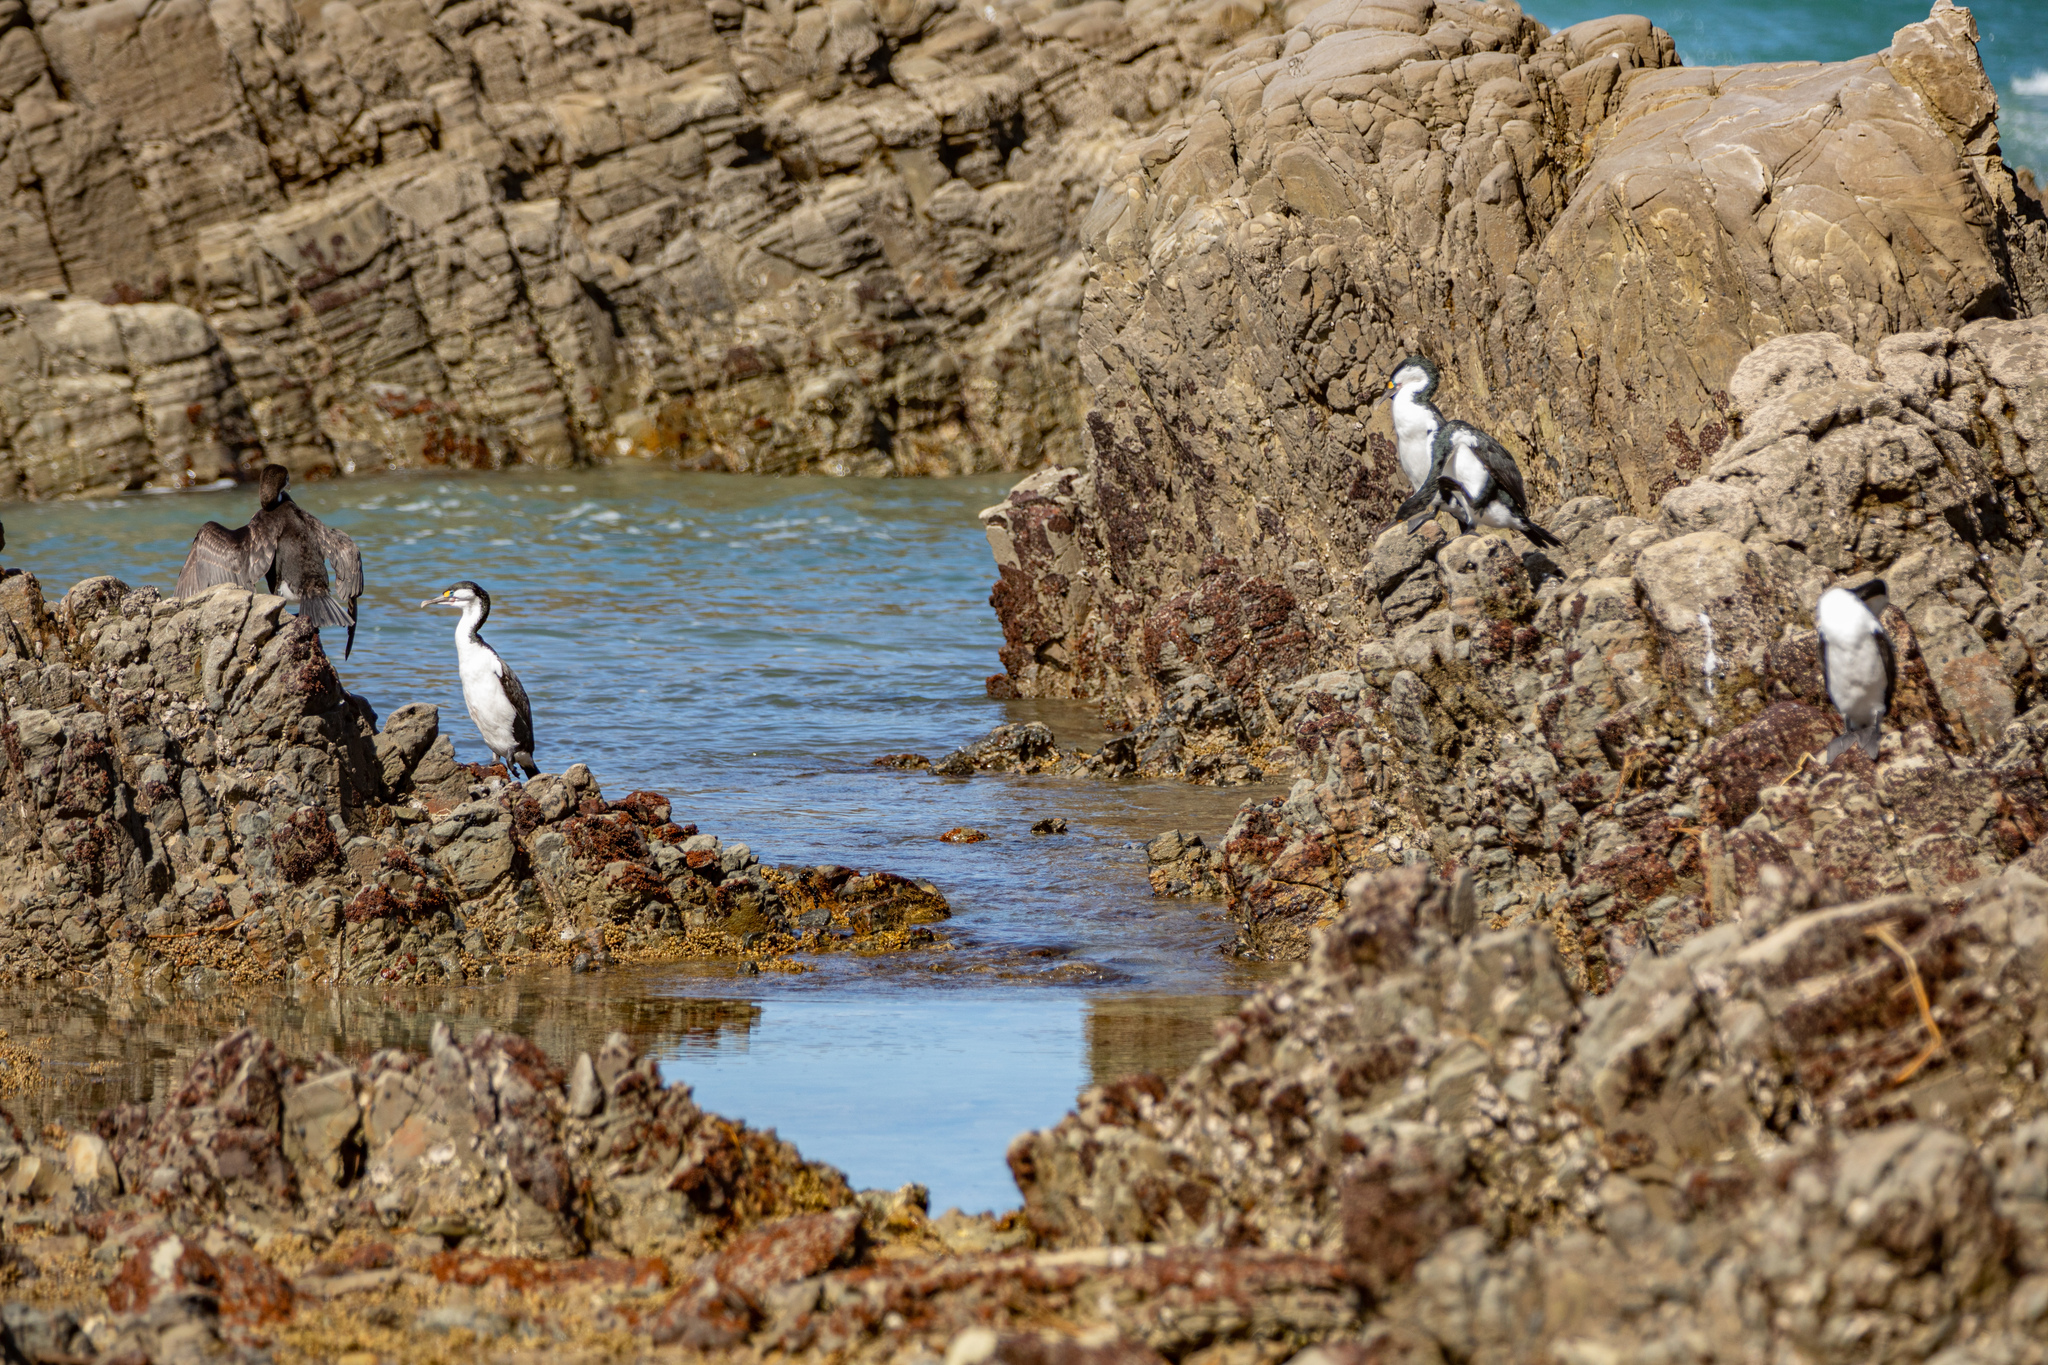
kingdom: Animalia
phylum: Chordata
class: Aves
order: Suliformes
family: Phalacrocoracidae
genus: Phalacrocorax
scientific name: Phalacrocorax varius
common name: Pied cormorant
